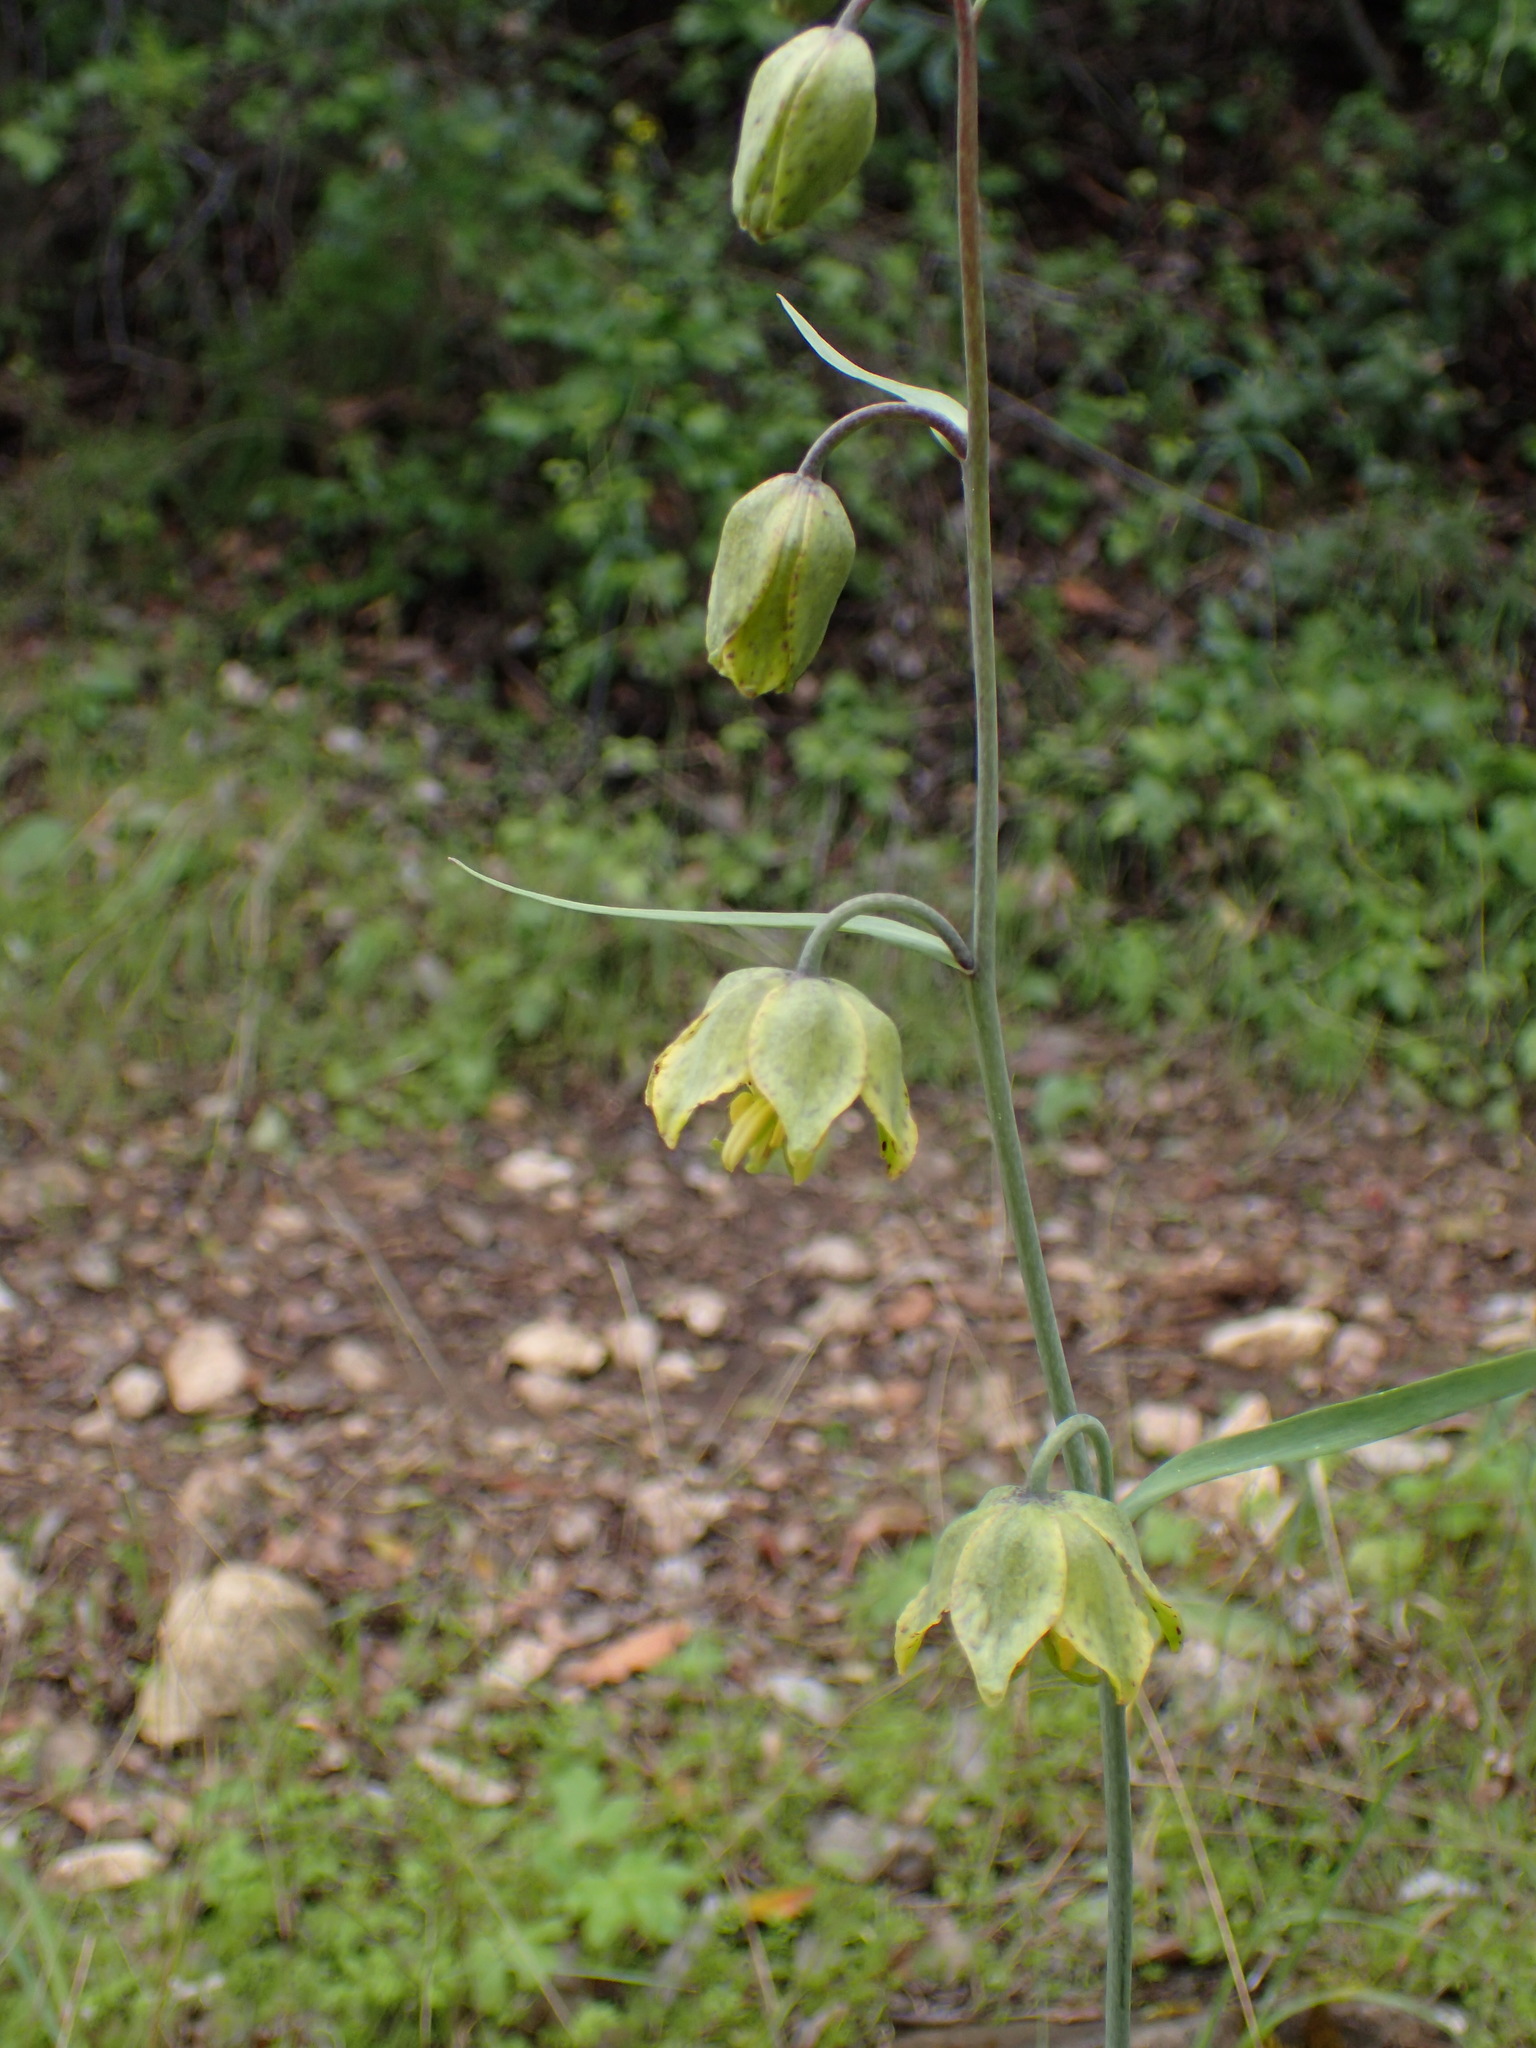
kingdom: Plantae
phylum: Tracheophyta
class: Liliopsida
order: Liliales
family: Liliaceae
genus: Fritillaria
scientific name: Fritillaria ojaiensis
